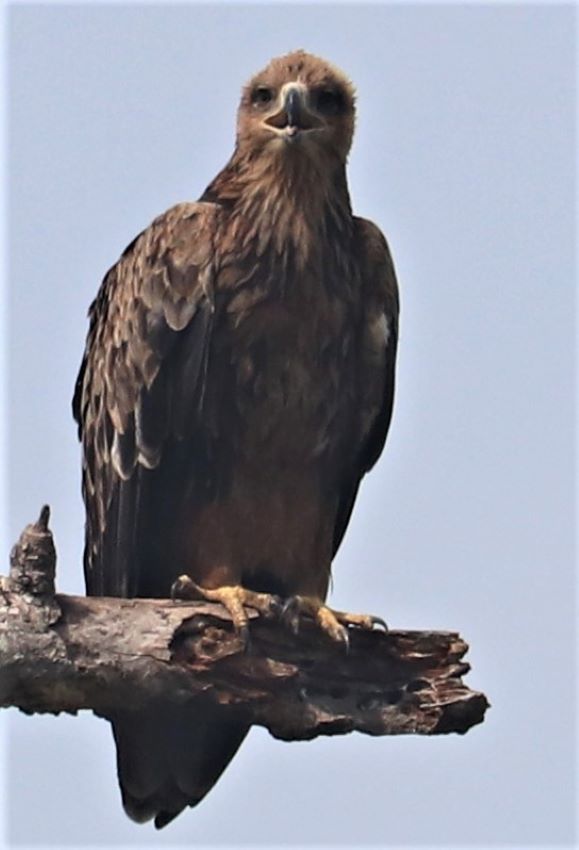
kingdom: Animalia
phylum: Chordata
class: Aves
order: Accipitriformes
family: Accipitridae
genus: Aquila
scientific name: Aquila rapax
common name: Tawny eagle
